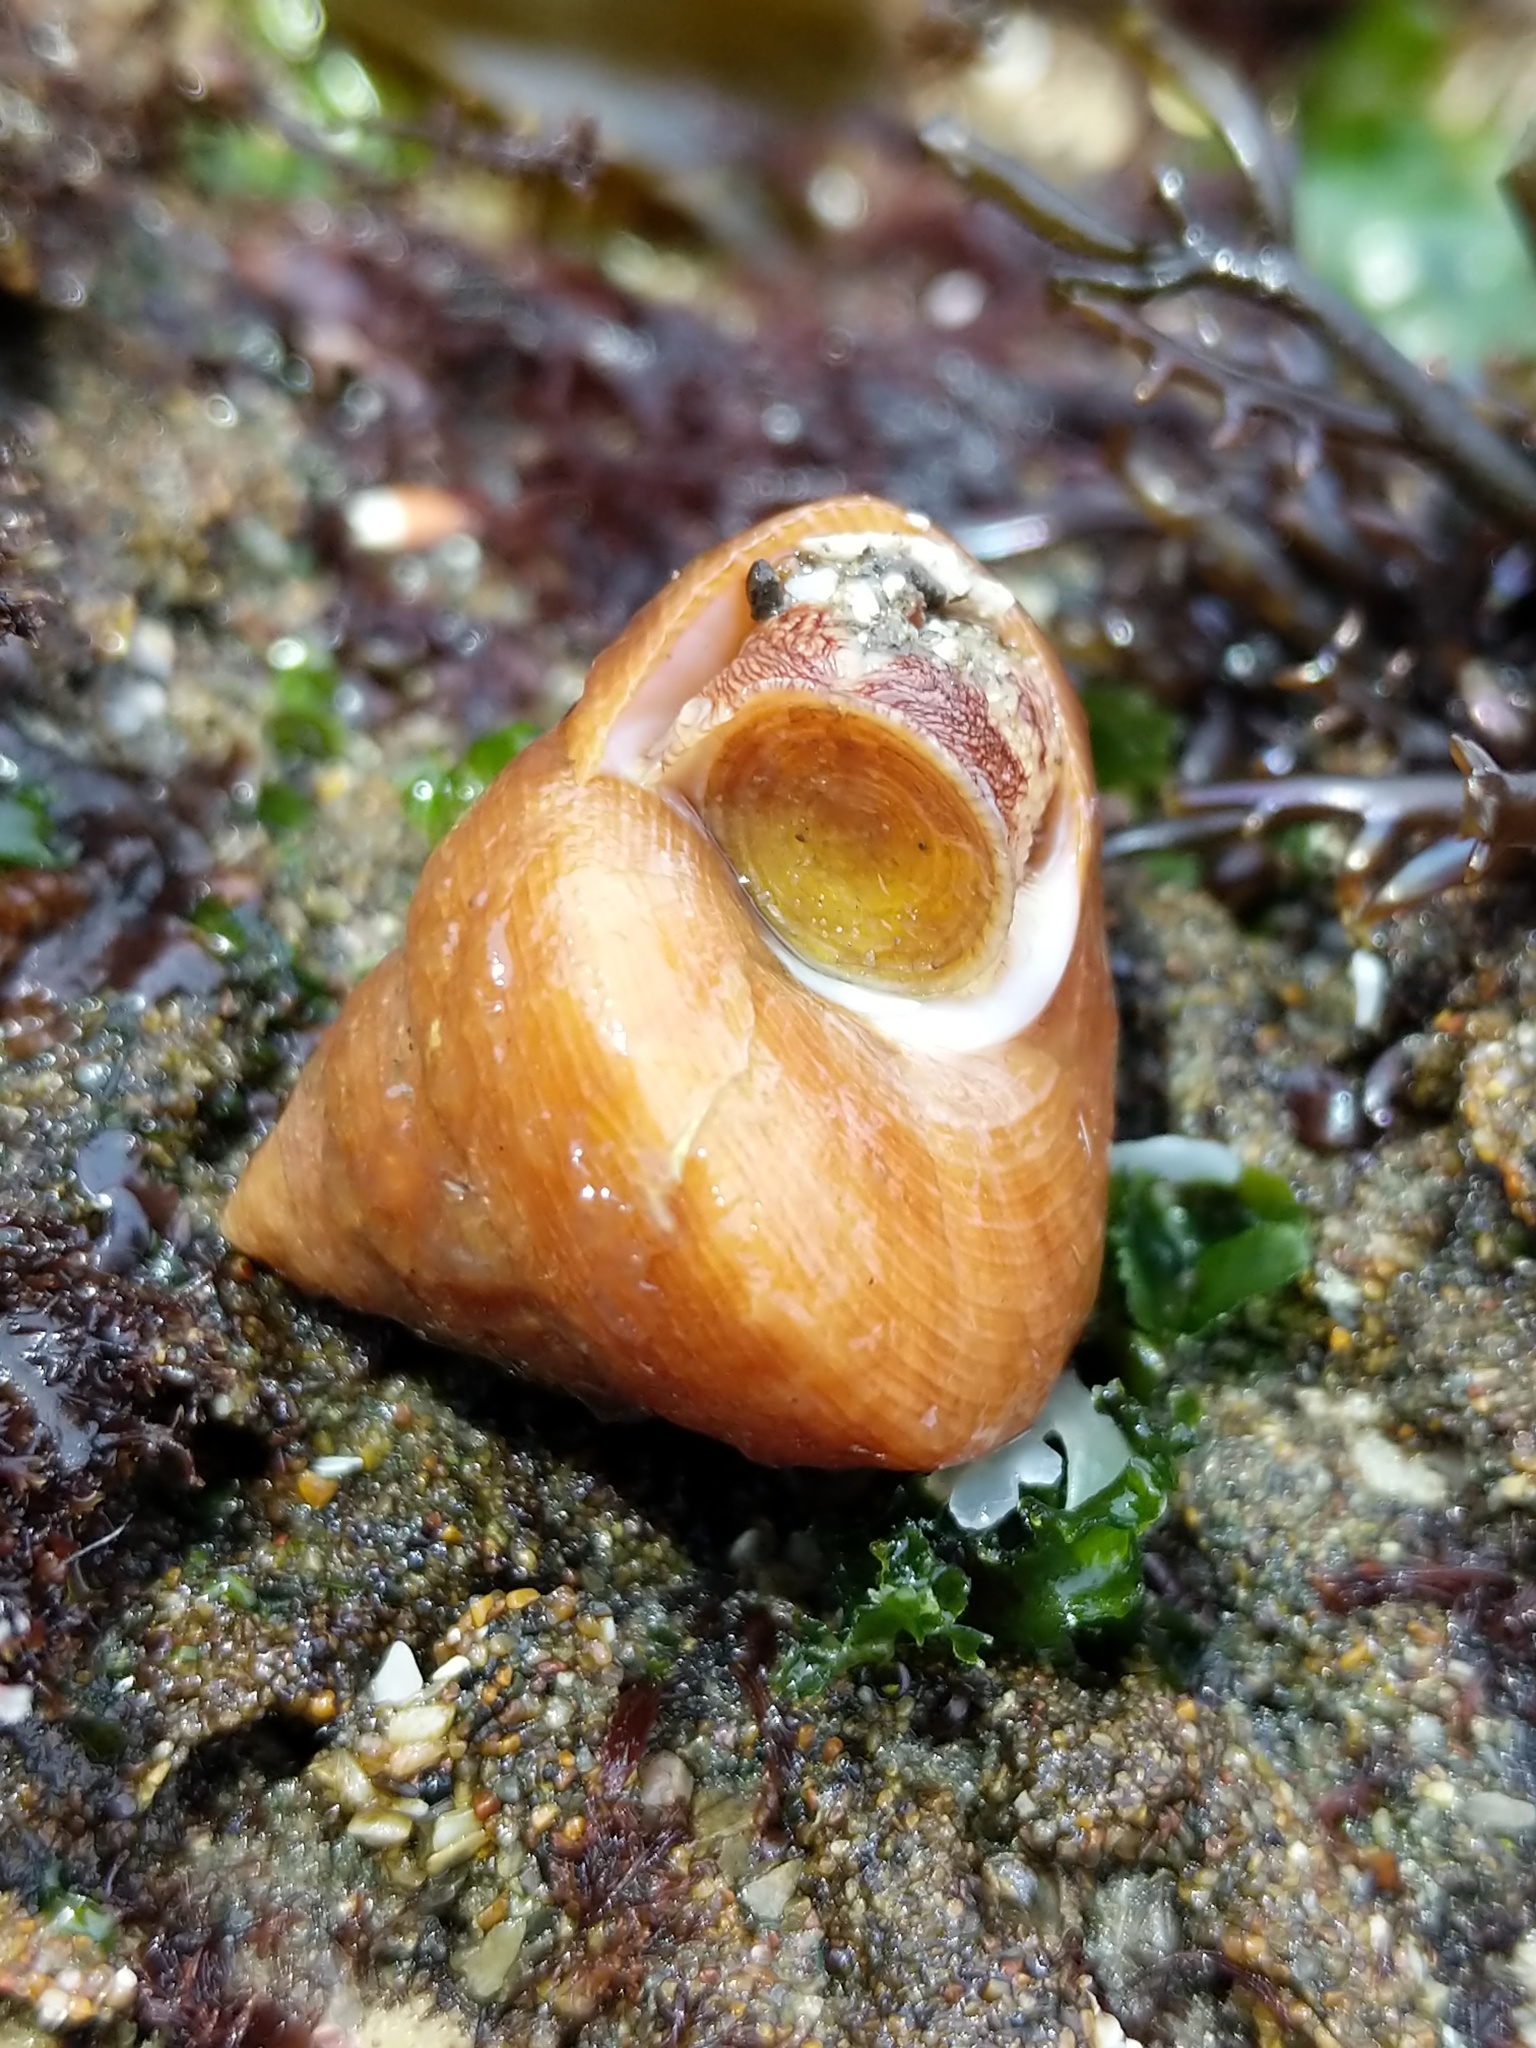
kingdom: Animalia
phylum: Mollusca
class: Gastropoda
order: Trochida
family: Calliostomatidae
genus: Calliostoma
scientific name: Calliostoma gloriosum
